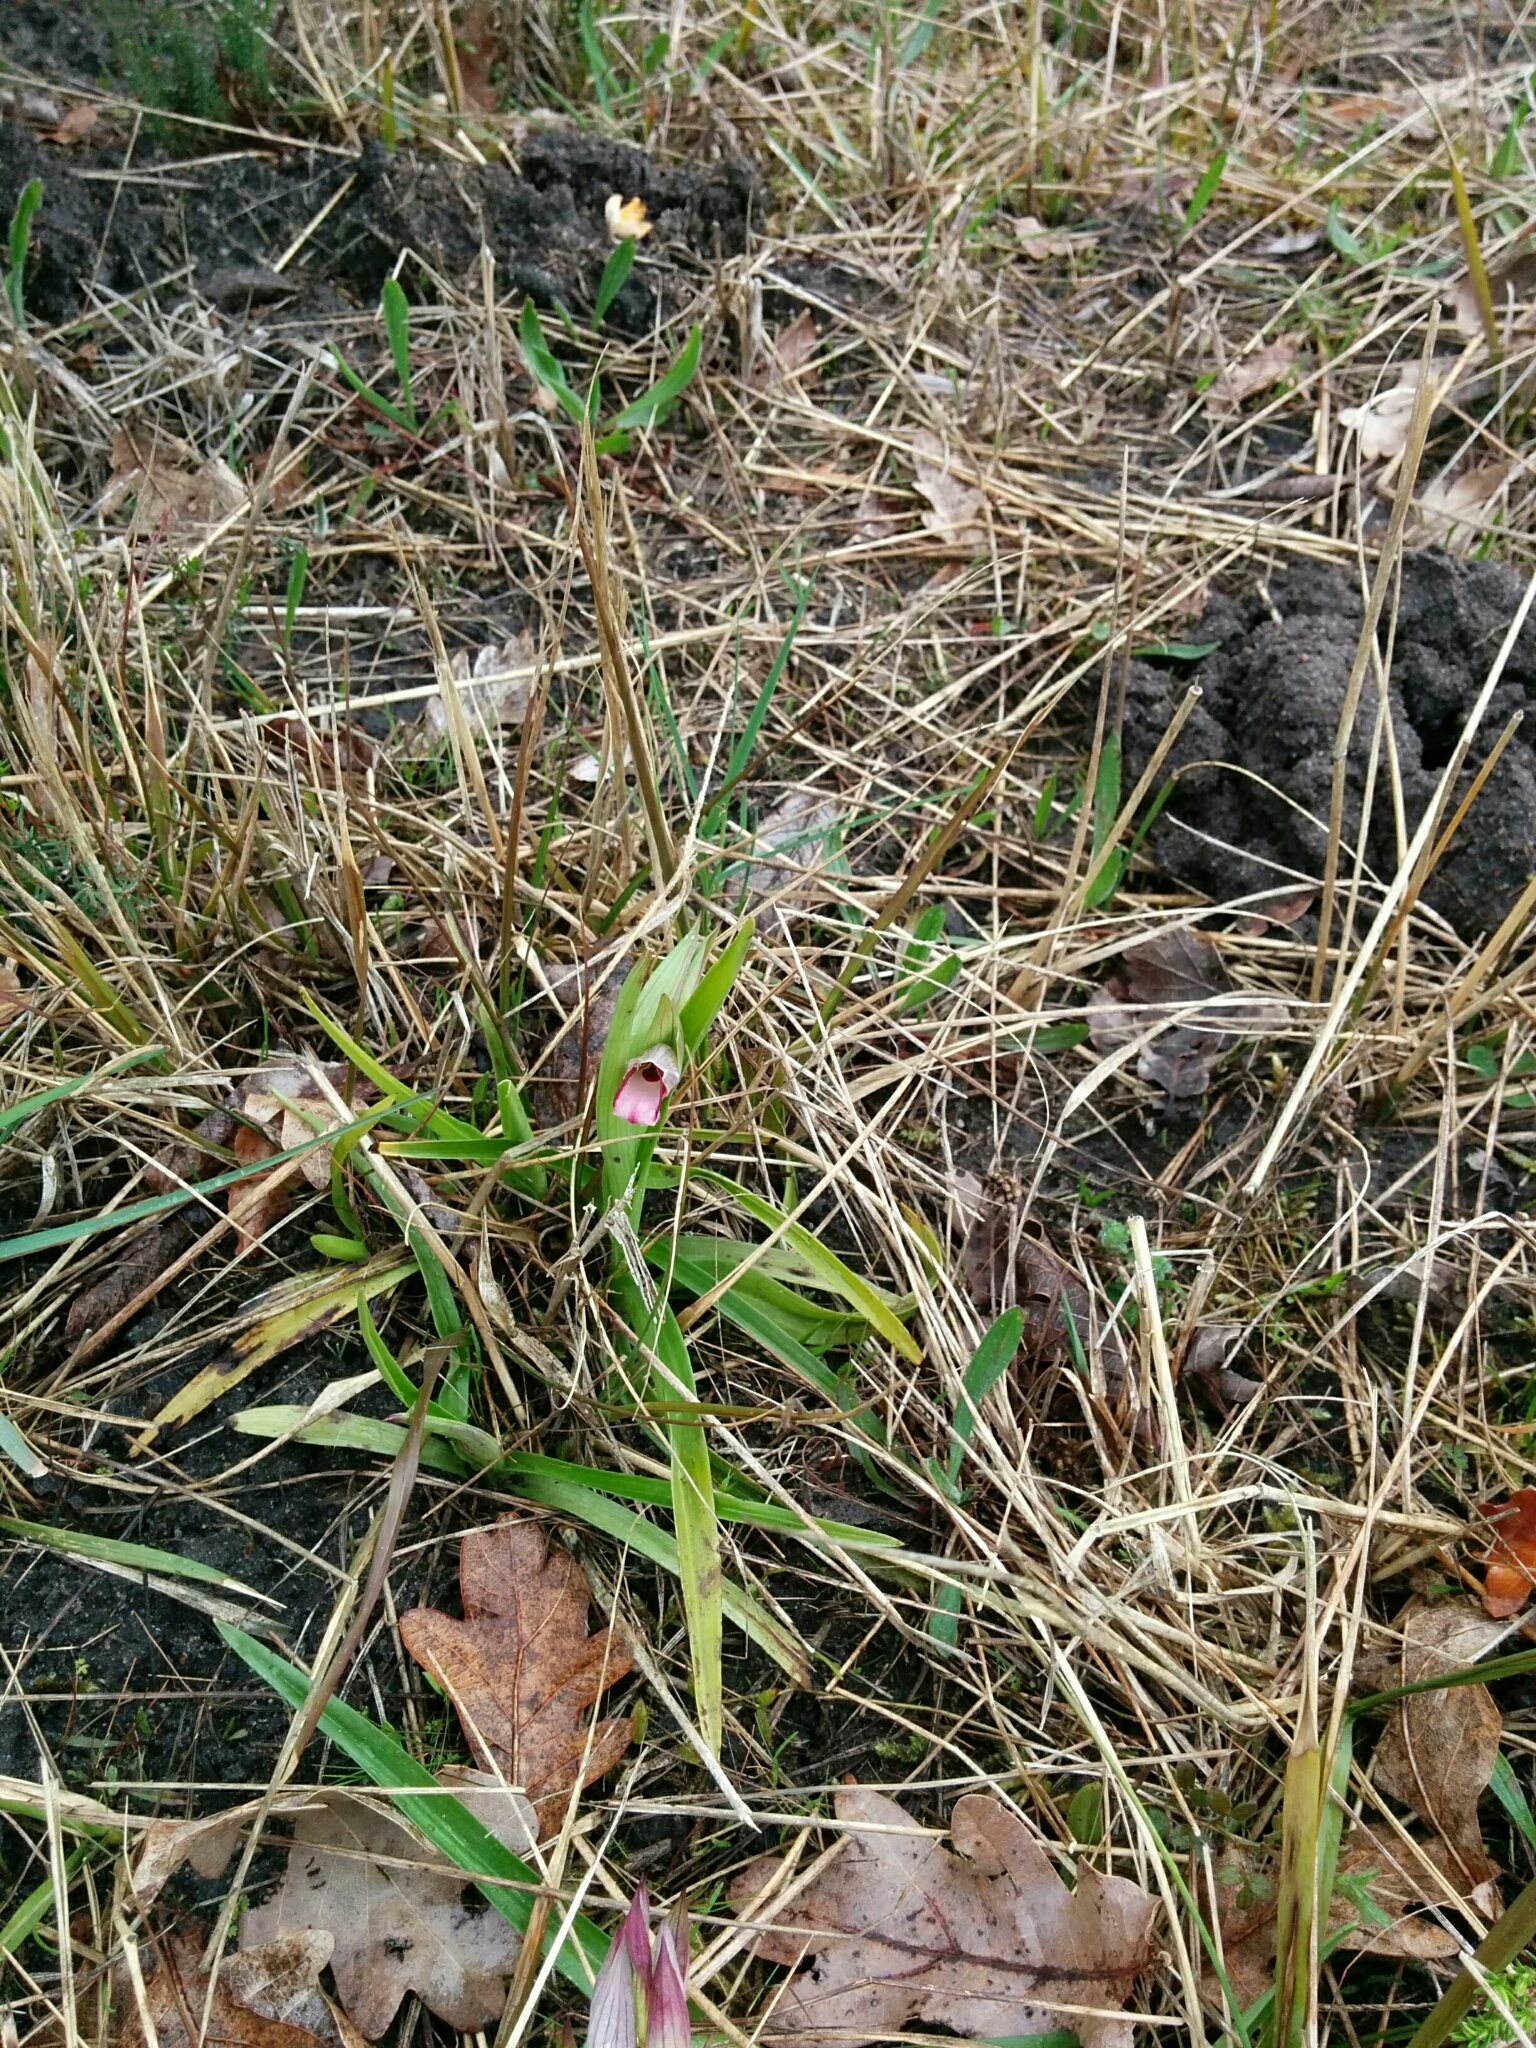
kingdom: Plantae
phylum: Tracheophyta
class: Liliopsida
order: Asparagales
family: Orchidaceae
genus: Serapias
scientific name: Serapias lingua
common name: Tongue-orchid
